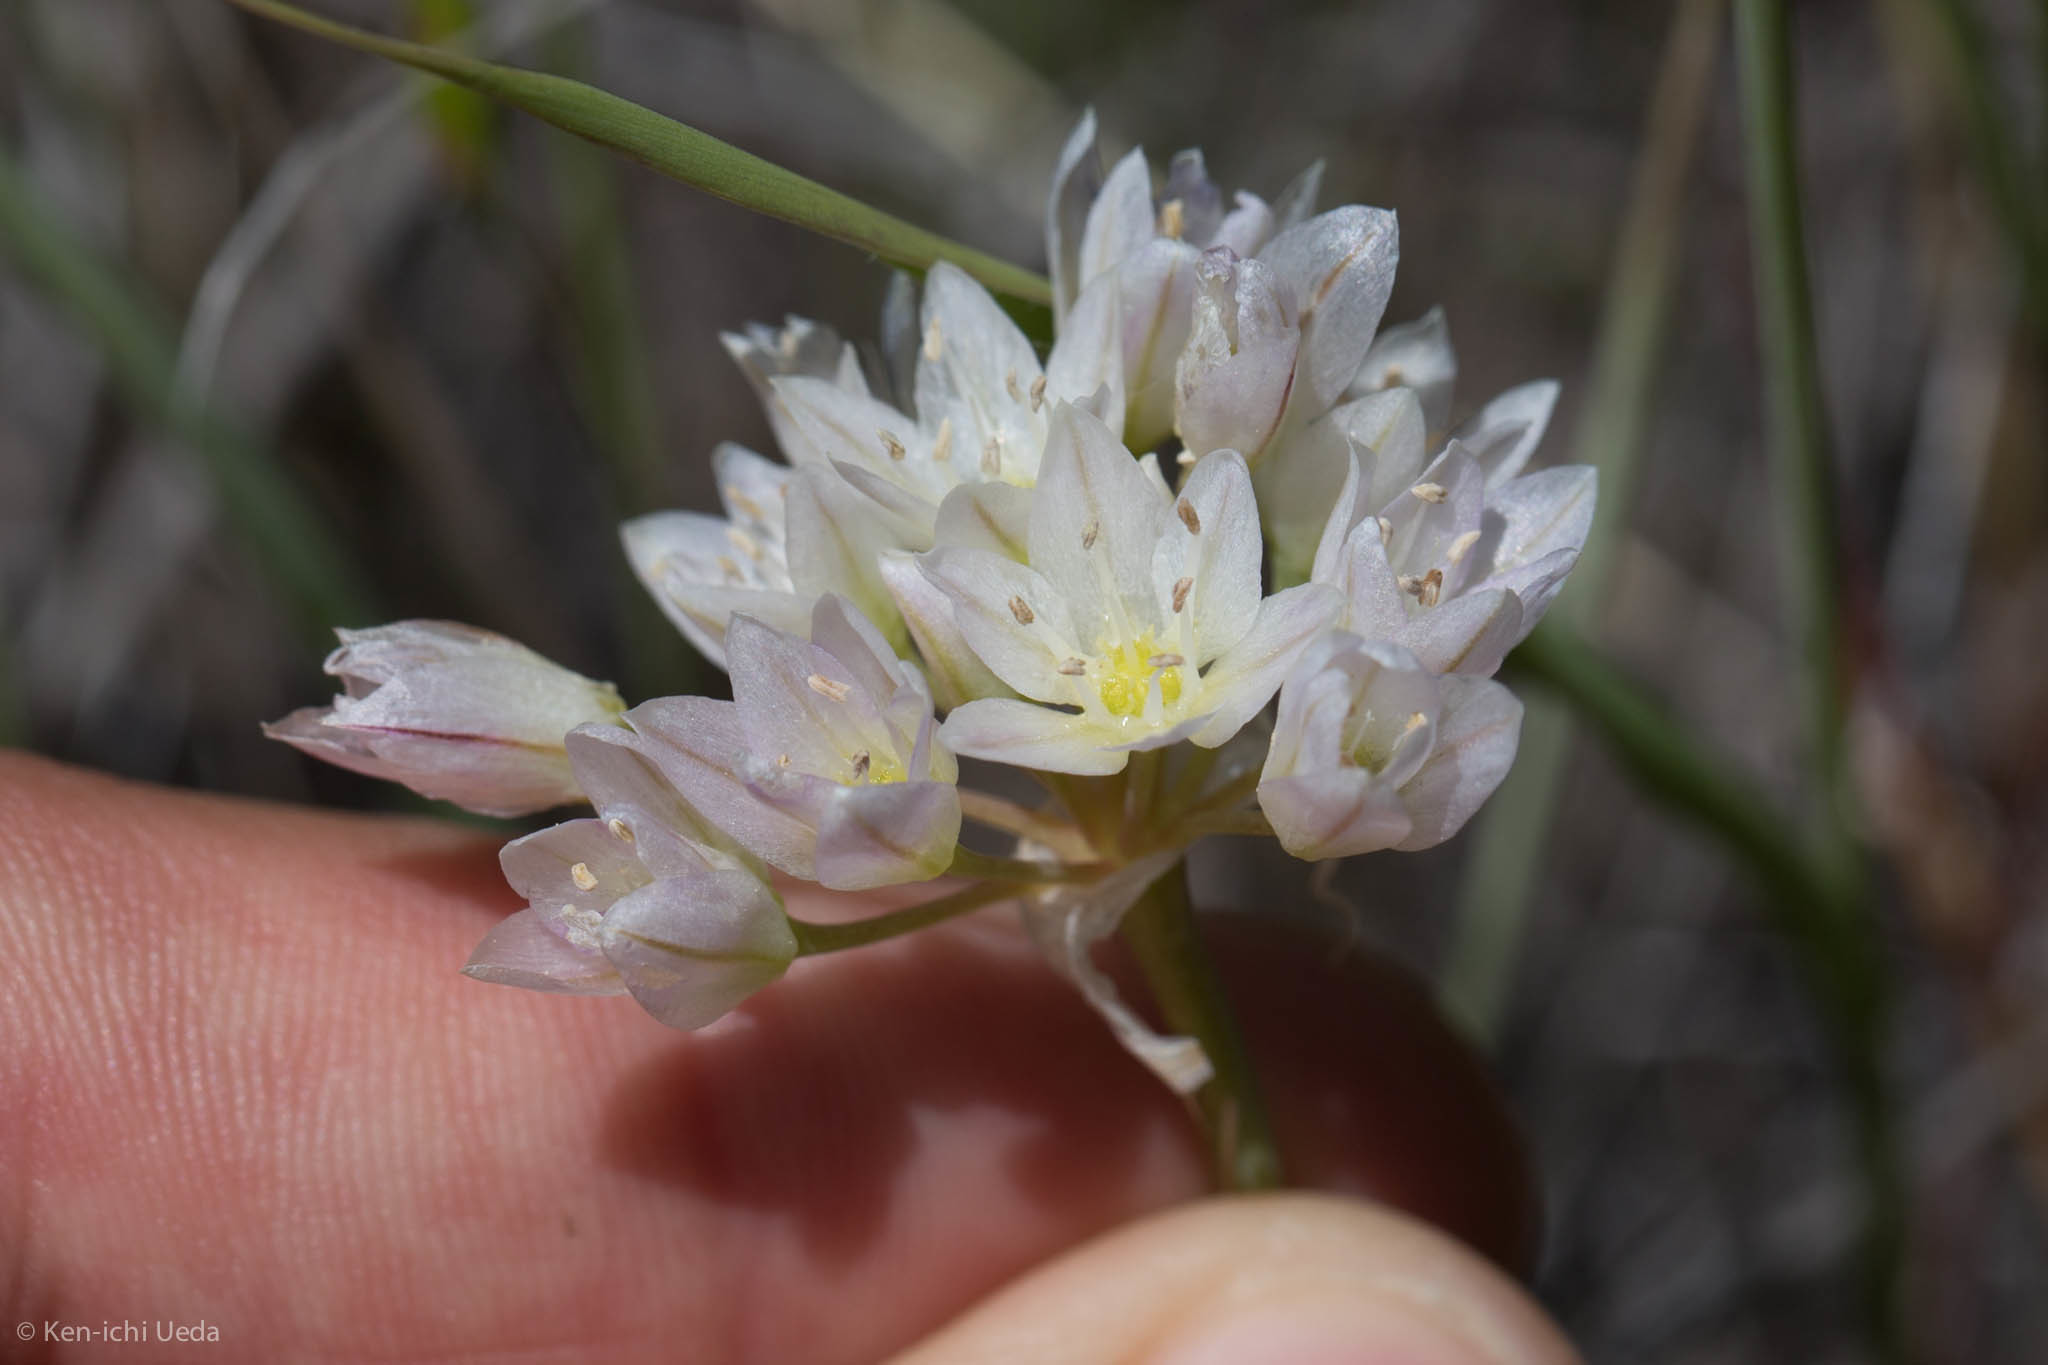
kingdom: Plantae
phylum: Tracheophyta
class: Liliopsida
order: Asparagales
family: Amaryllidaceae
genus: Allium
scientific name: Allium fimbriatum
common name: Fringed onion
